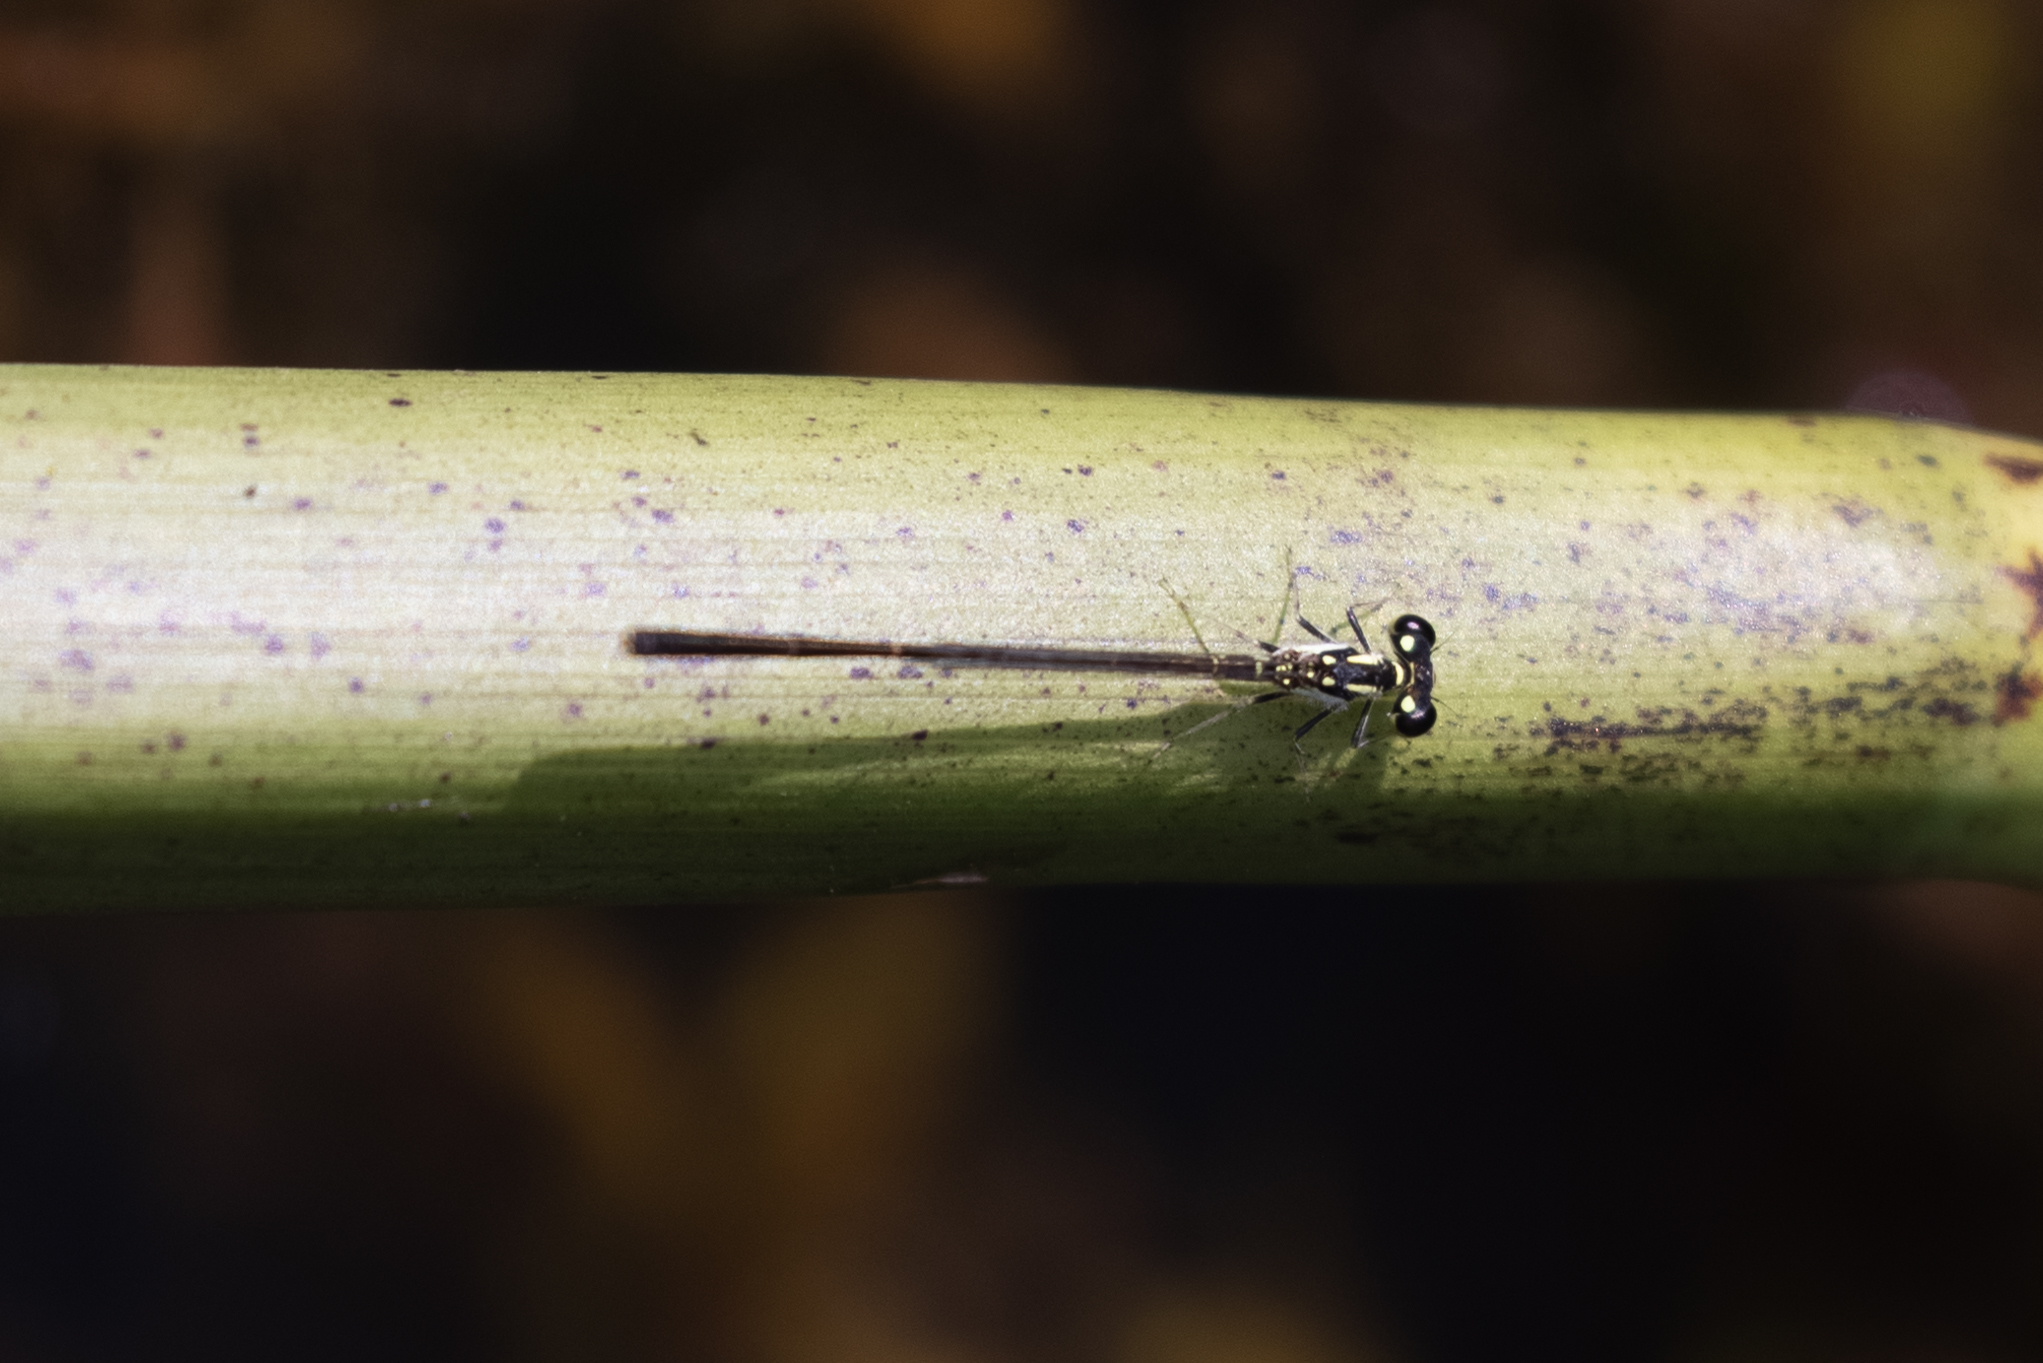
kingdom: Animalia
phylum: Arthropoda
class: Insecta
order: Odonata
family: Coenagrionidae
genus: Ischnura
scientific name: Ischnura posita
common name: Fragile forktail
